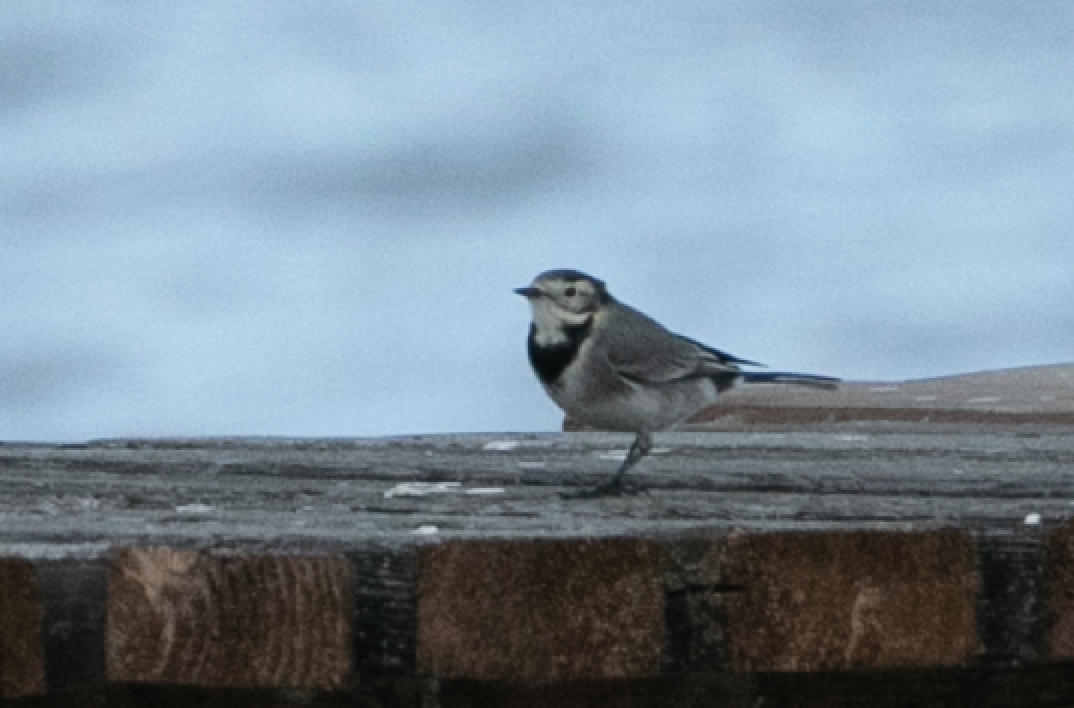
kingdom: Animalia
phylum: Chordata
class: Aves
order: Passeriformes
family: Motacillidae
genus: Motacilla
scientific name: Motacilla alba
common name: White wagtail
